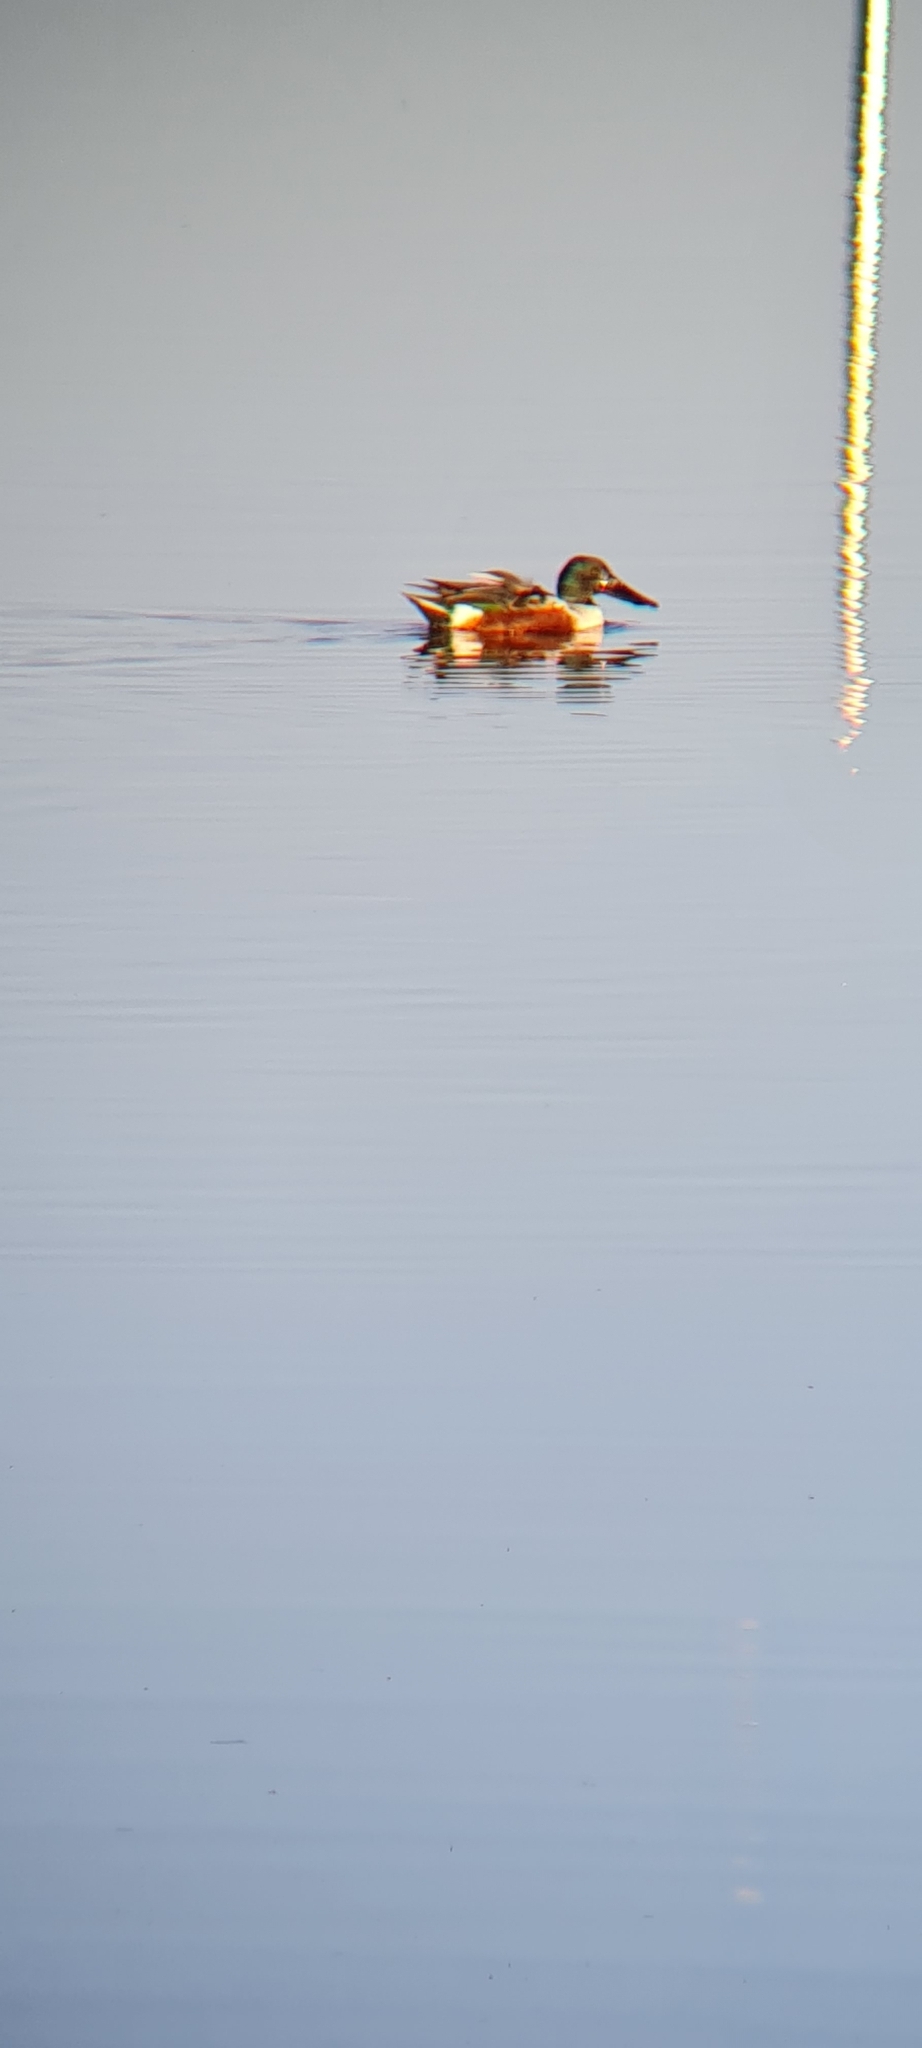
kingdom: Animalia
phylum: Chordata
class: Aves
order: Anseriformes
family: Anatidae
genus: Spatula
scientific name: Spatula clypeata
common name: Northern shoveler
